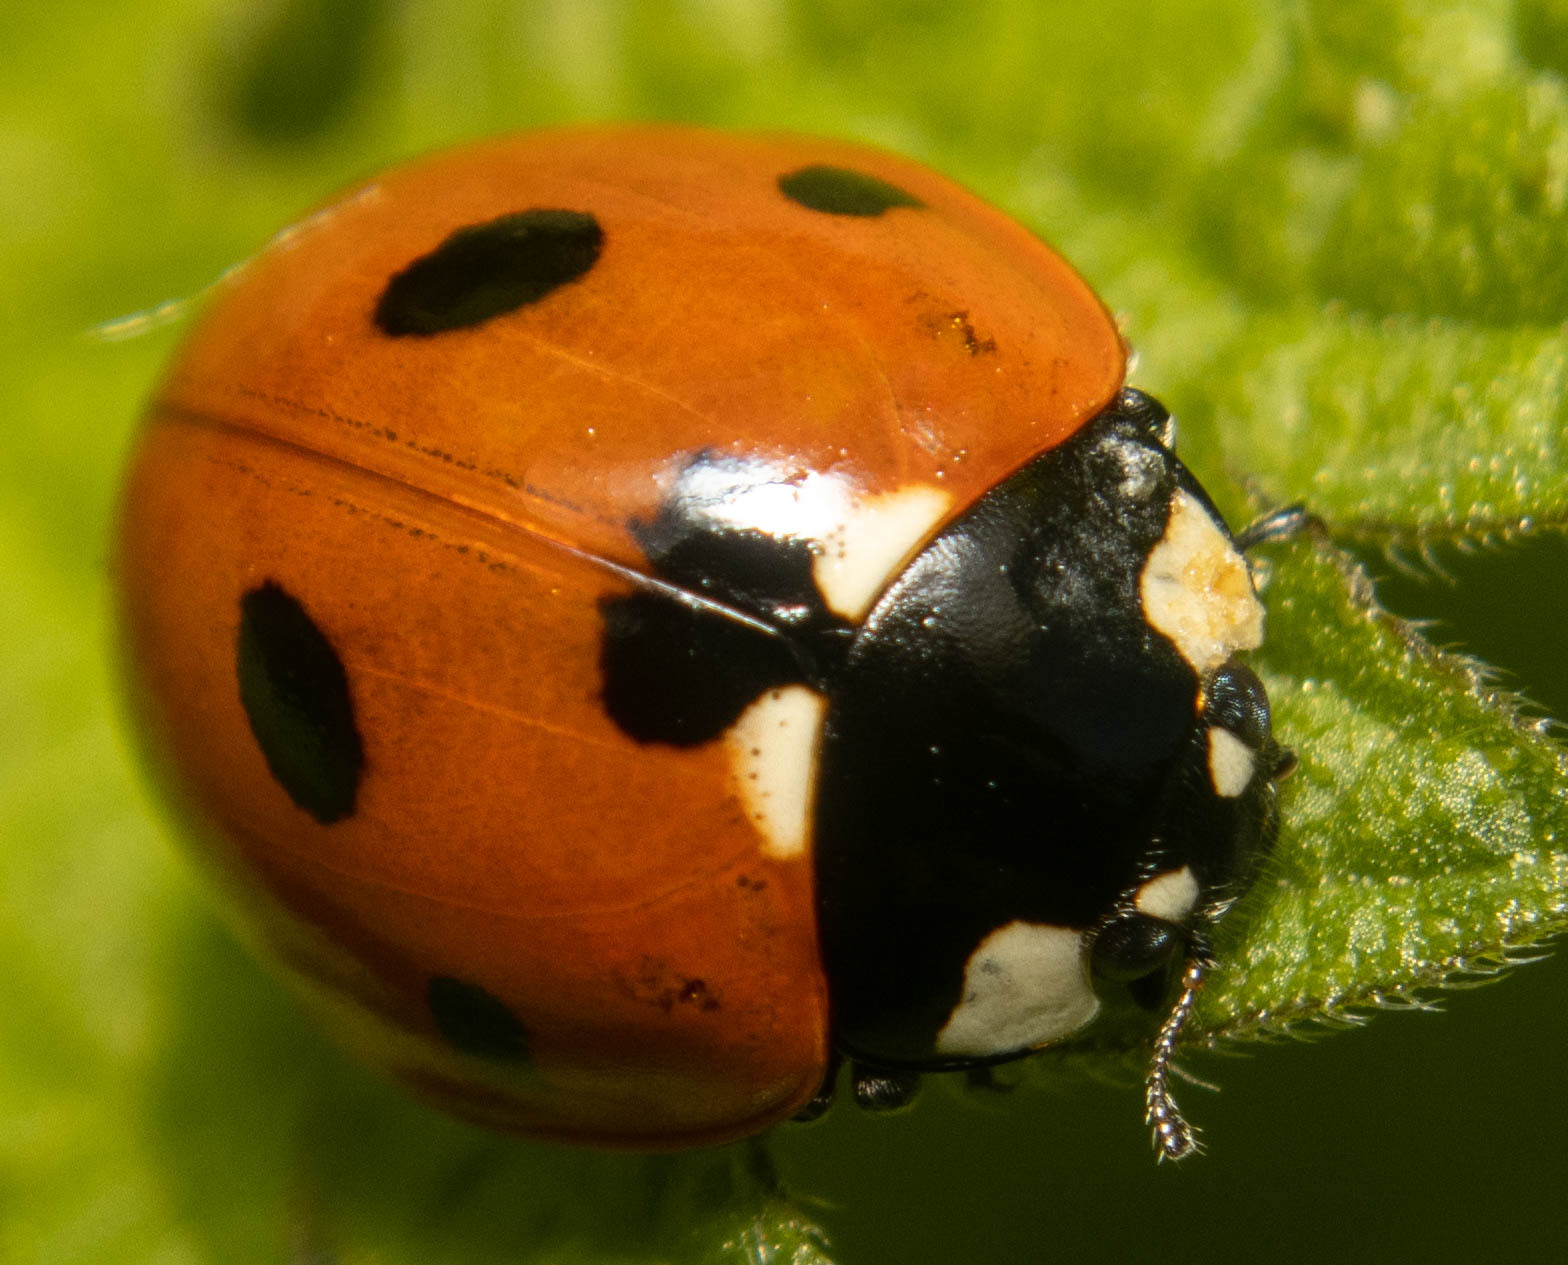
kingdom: Animalia
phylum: Arthropoda
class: Insecta
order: Coleoptera
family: Coccinellidae
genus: Coccinella
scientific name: Coccinella septempunctata
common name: Sevenspotted lady beetle
